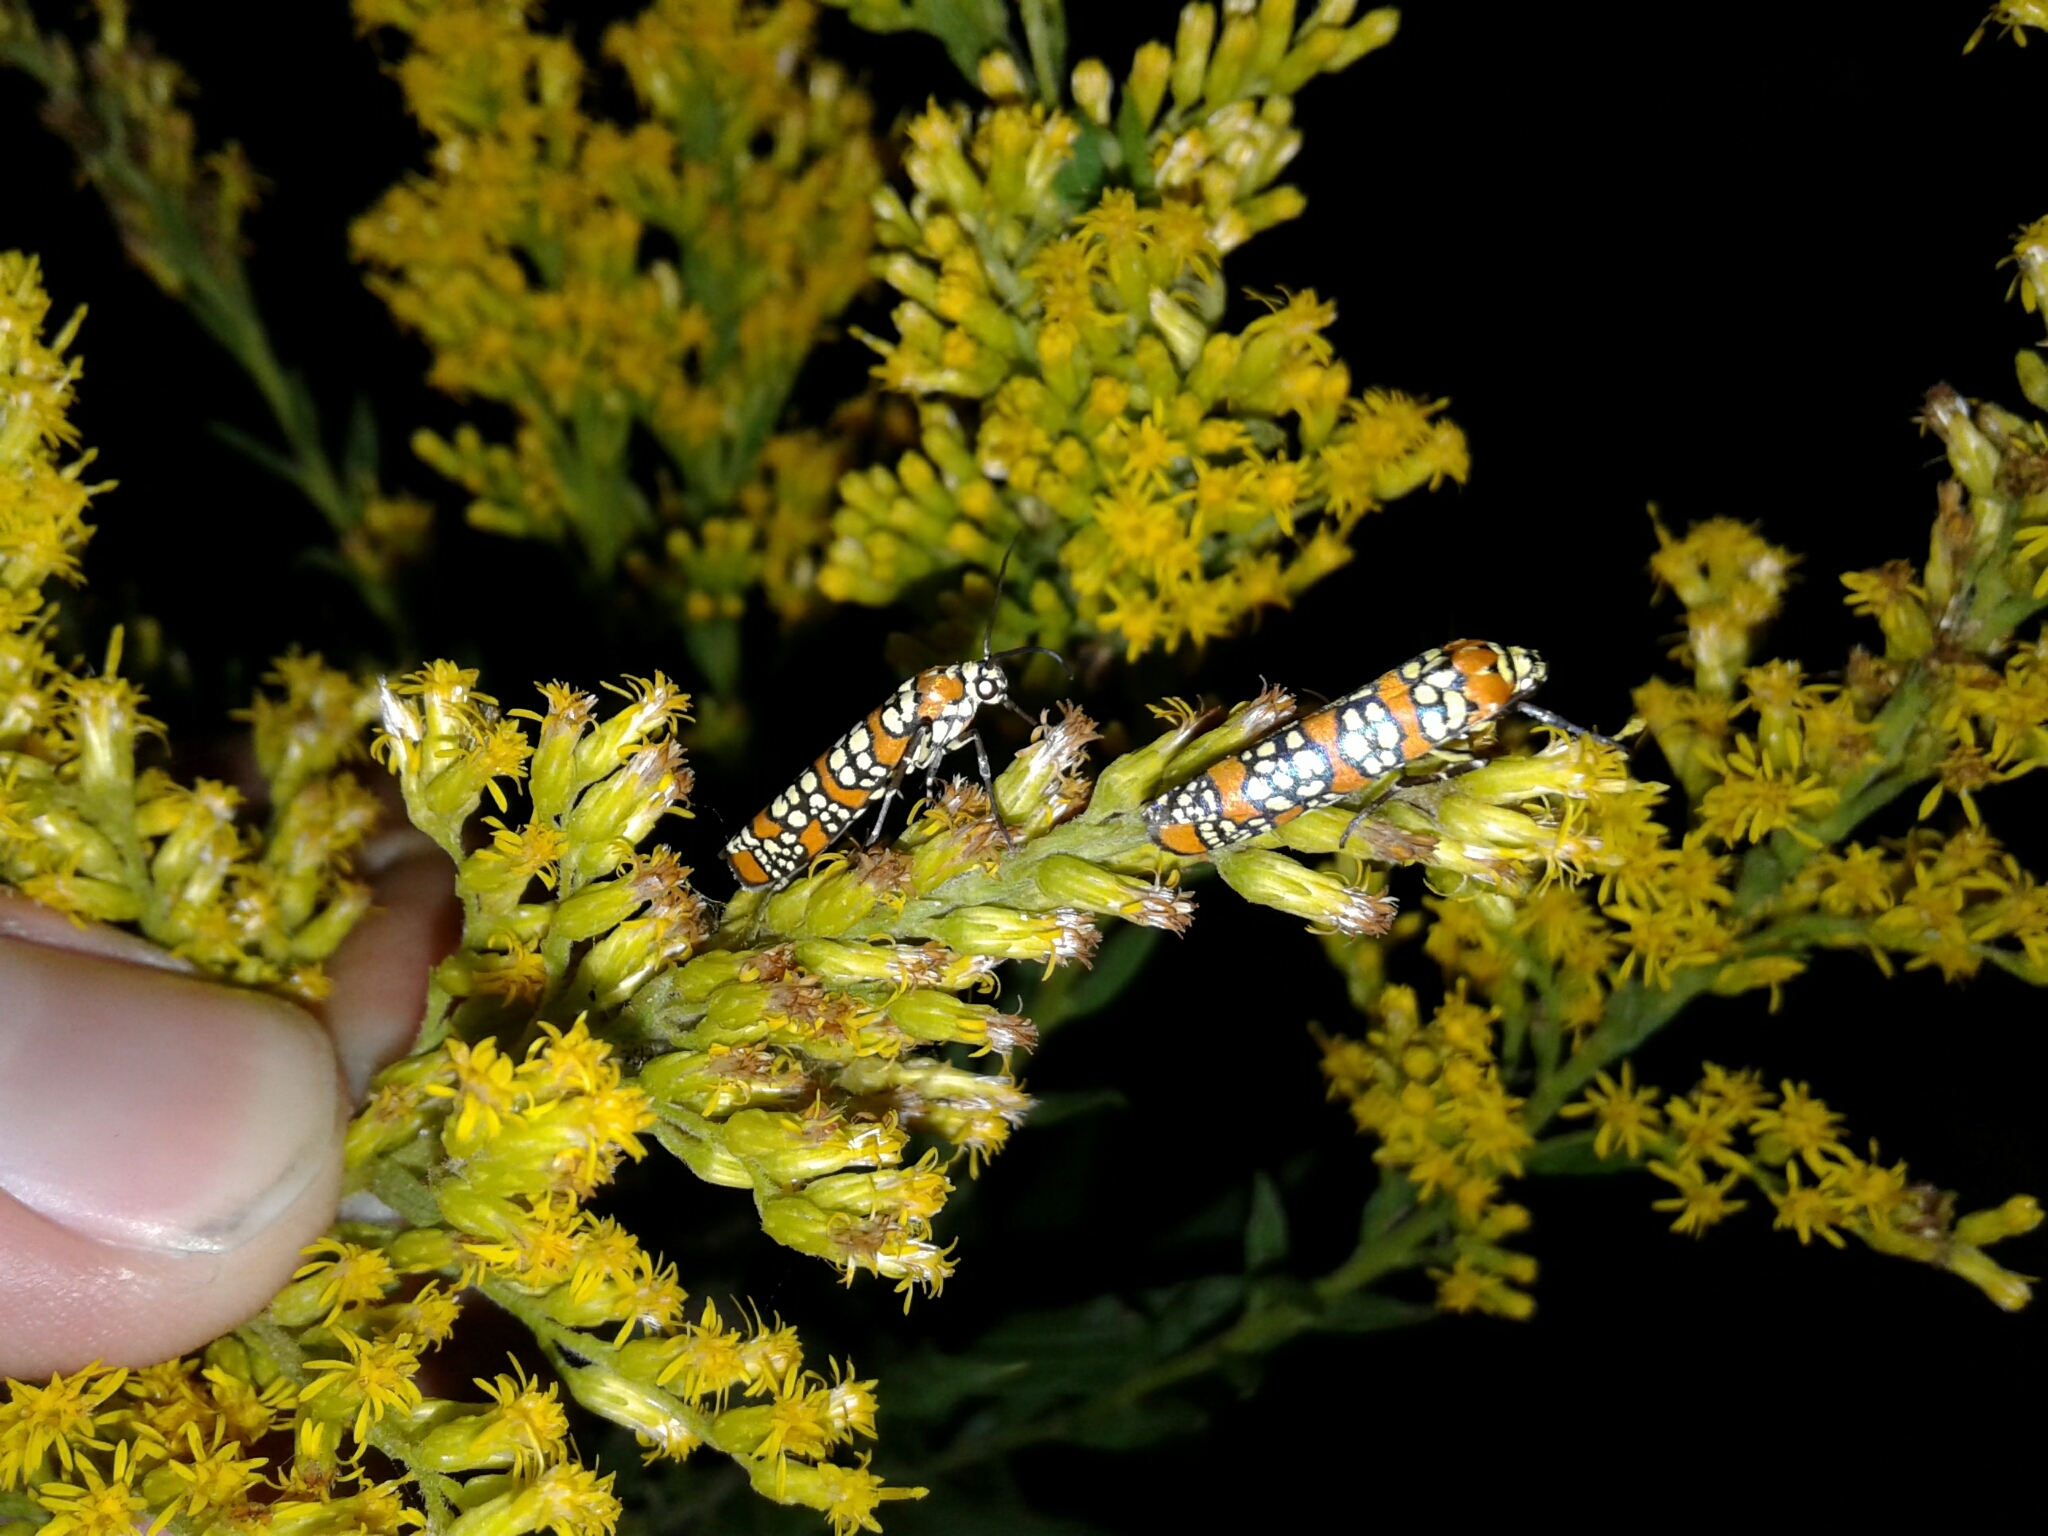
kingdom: Animalia
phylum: Arthropoda
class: Insecta
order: Lepidoptera
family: Attevidae
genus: Atteva
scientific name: Atteva punctella
